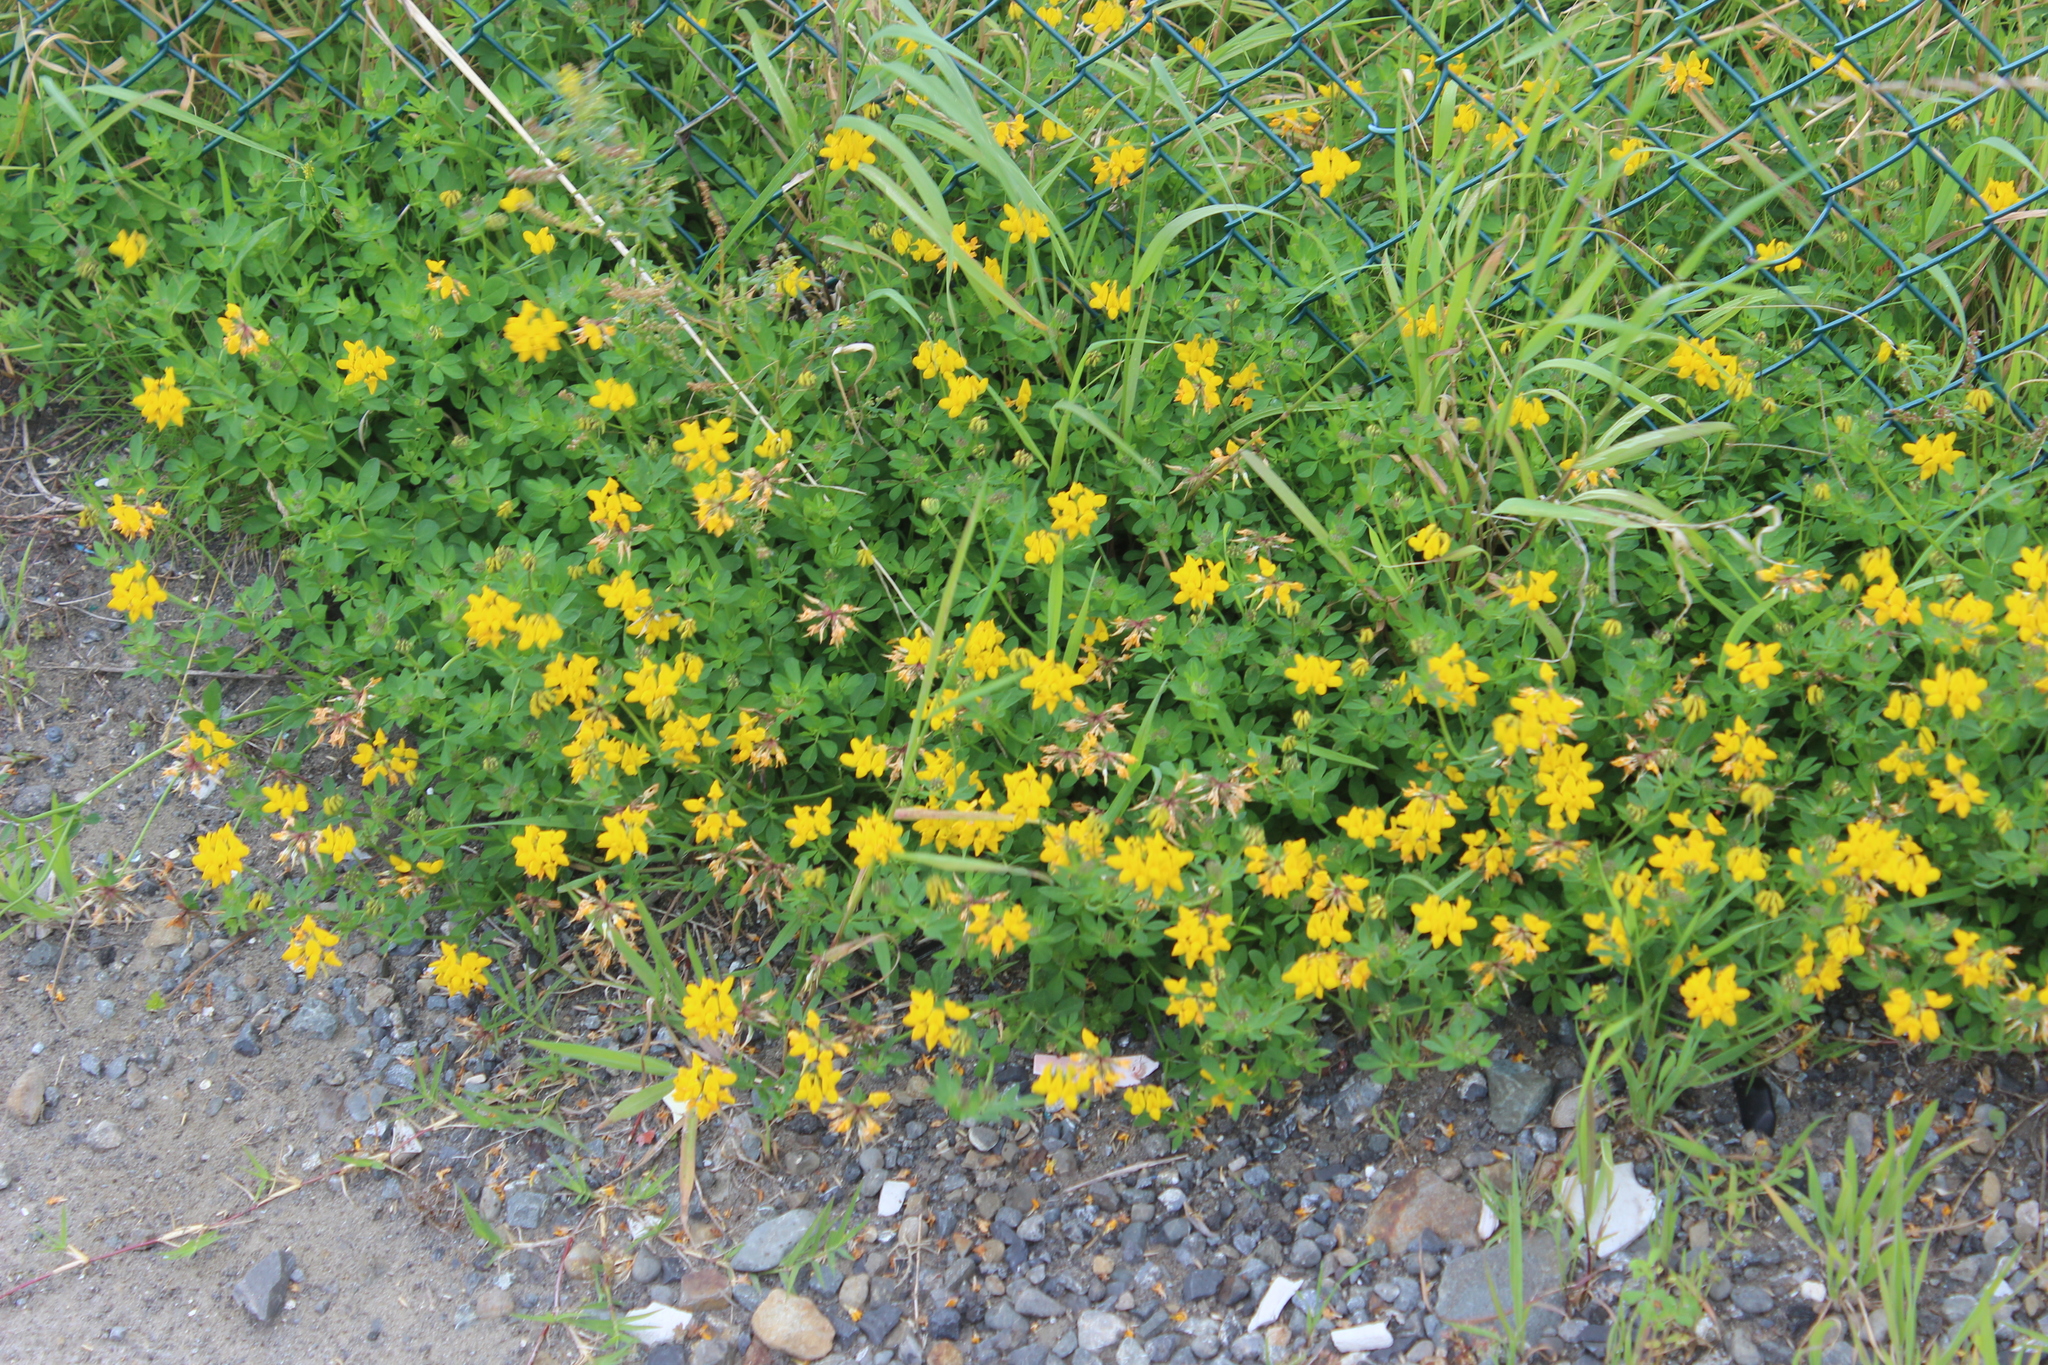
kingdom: Plantae
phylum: Tracheophyta
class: Magnoliopsida
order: Fabales
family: Fabaceae
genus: Lotus
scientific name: Lotus pedunculatus
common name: Greater birdsfoot-trefoil
